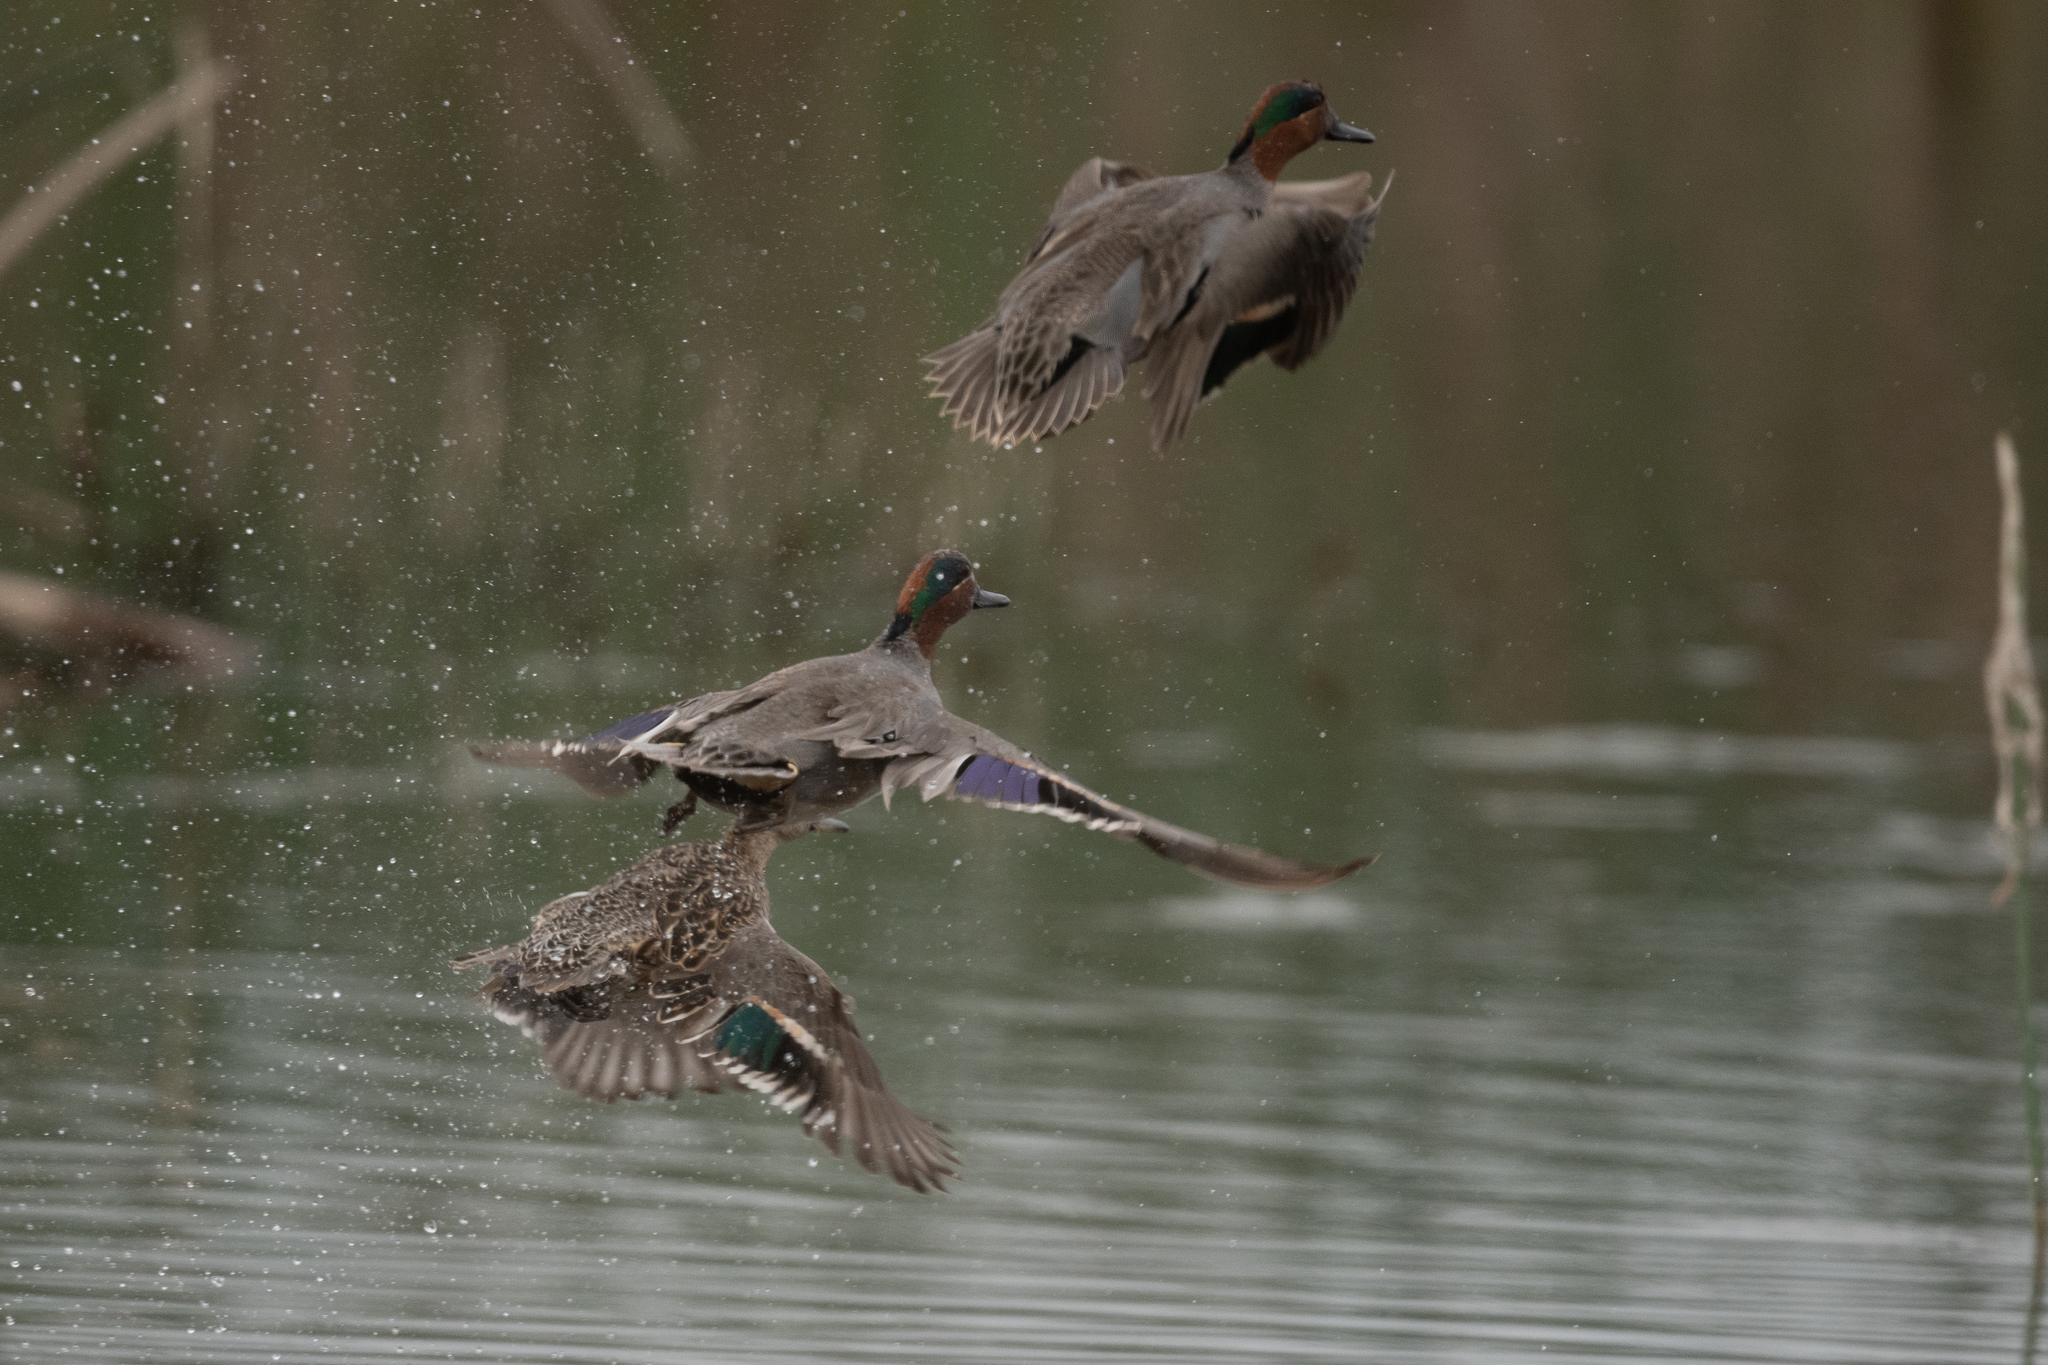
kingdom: Animalia
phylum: Chordata
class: Aves
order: Anseriformes
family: Anatidae
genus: Anas
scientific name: Anas crecca
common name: Eurasian teal
